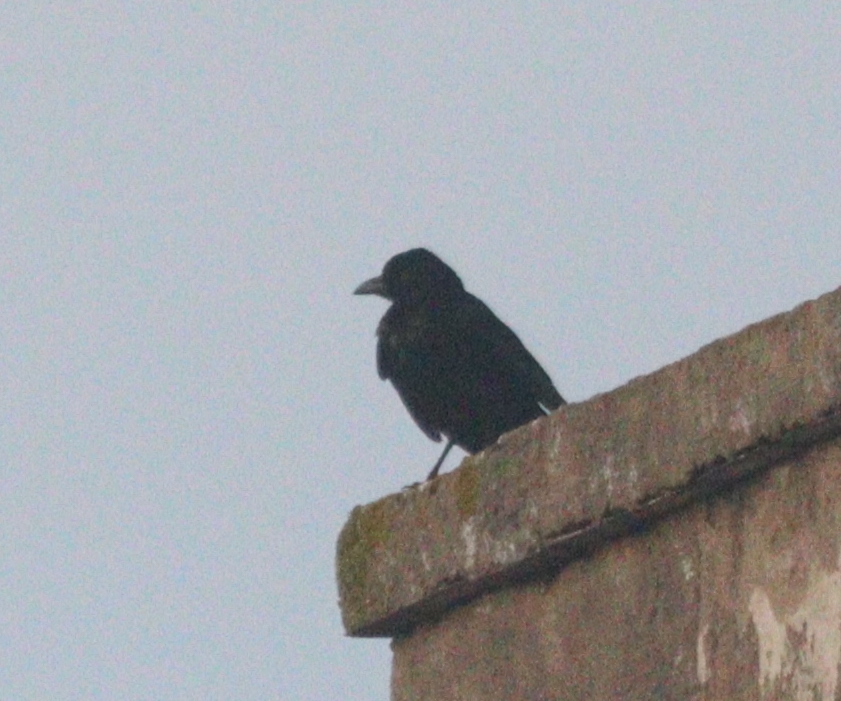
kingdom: Animalia
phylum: Chordata
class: Aves
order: Passeriformes
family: Corvidae
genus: Corvus
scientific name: Corvus corone
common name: Carrion crow
